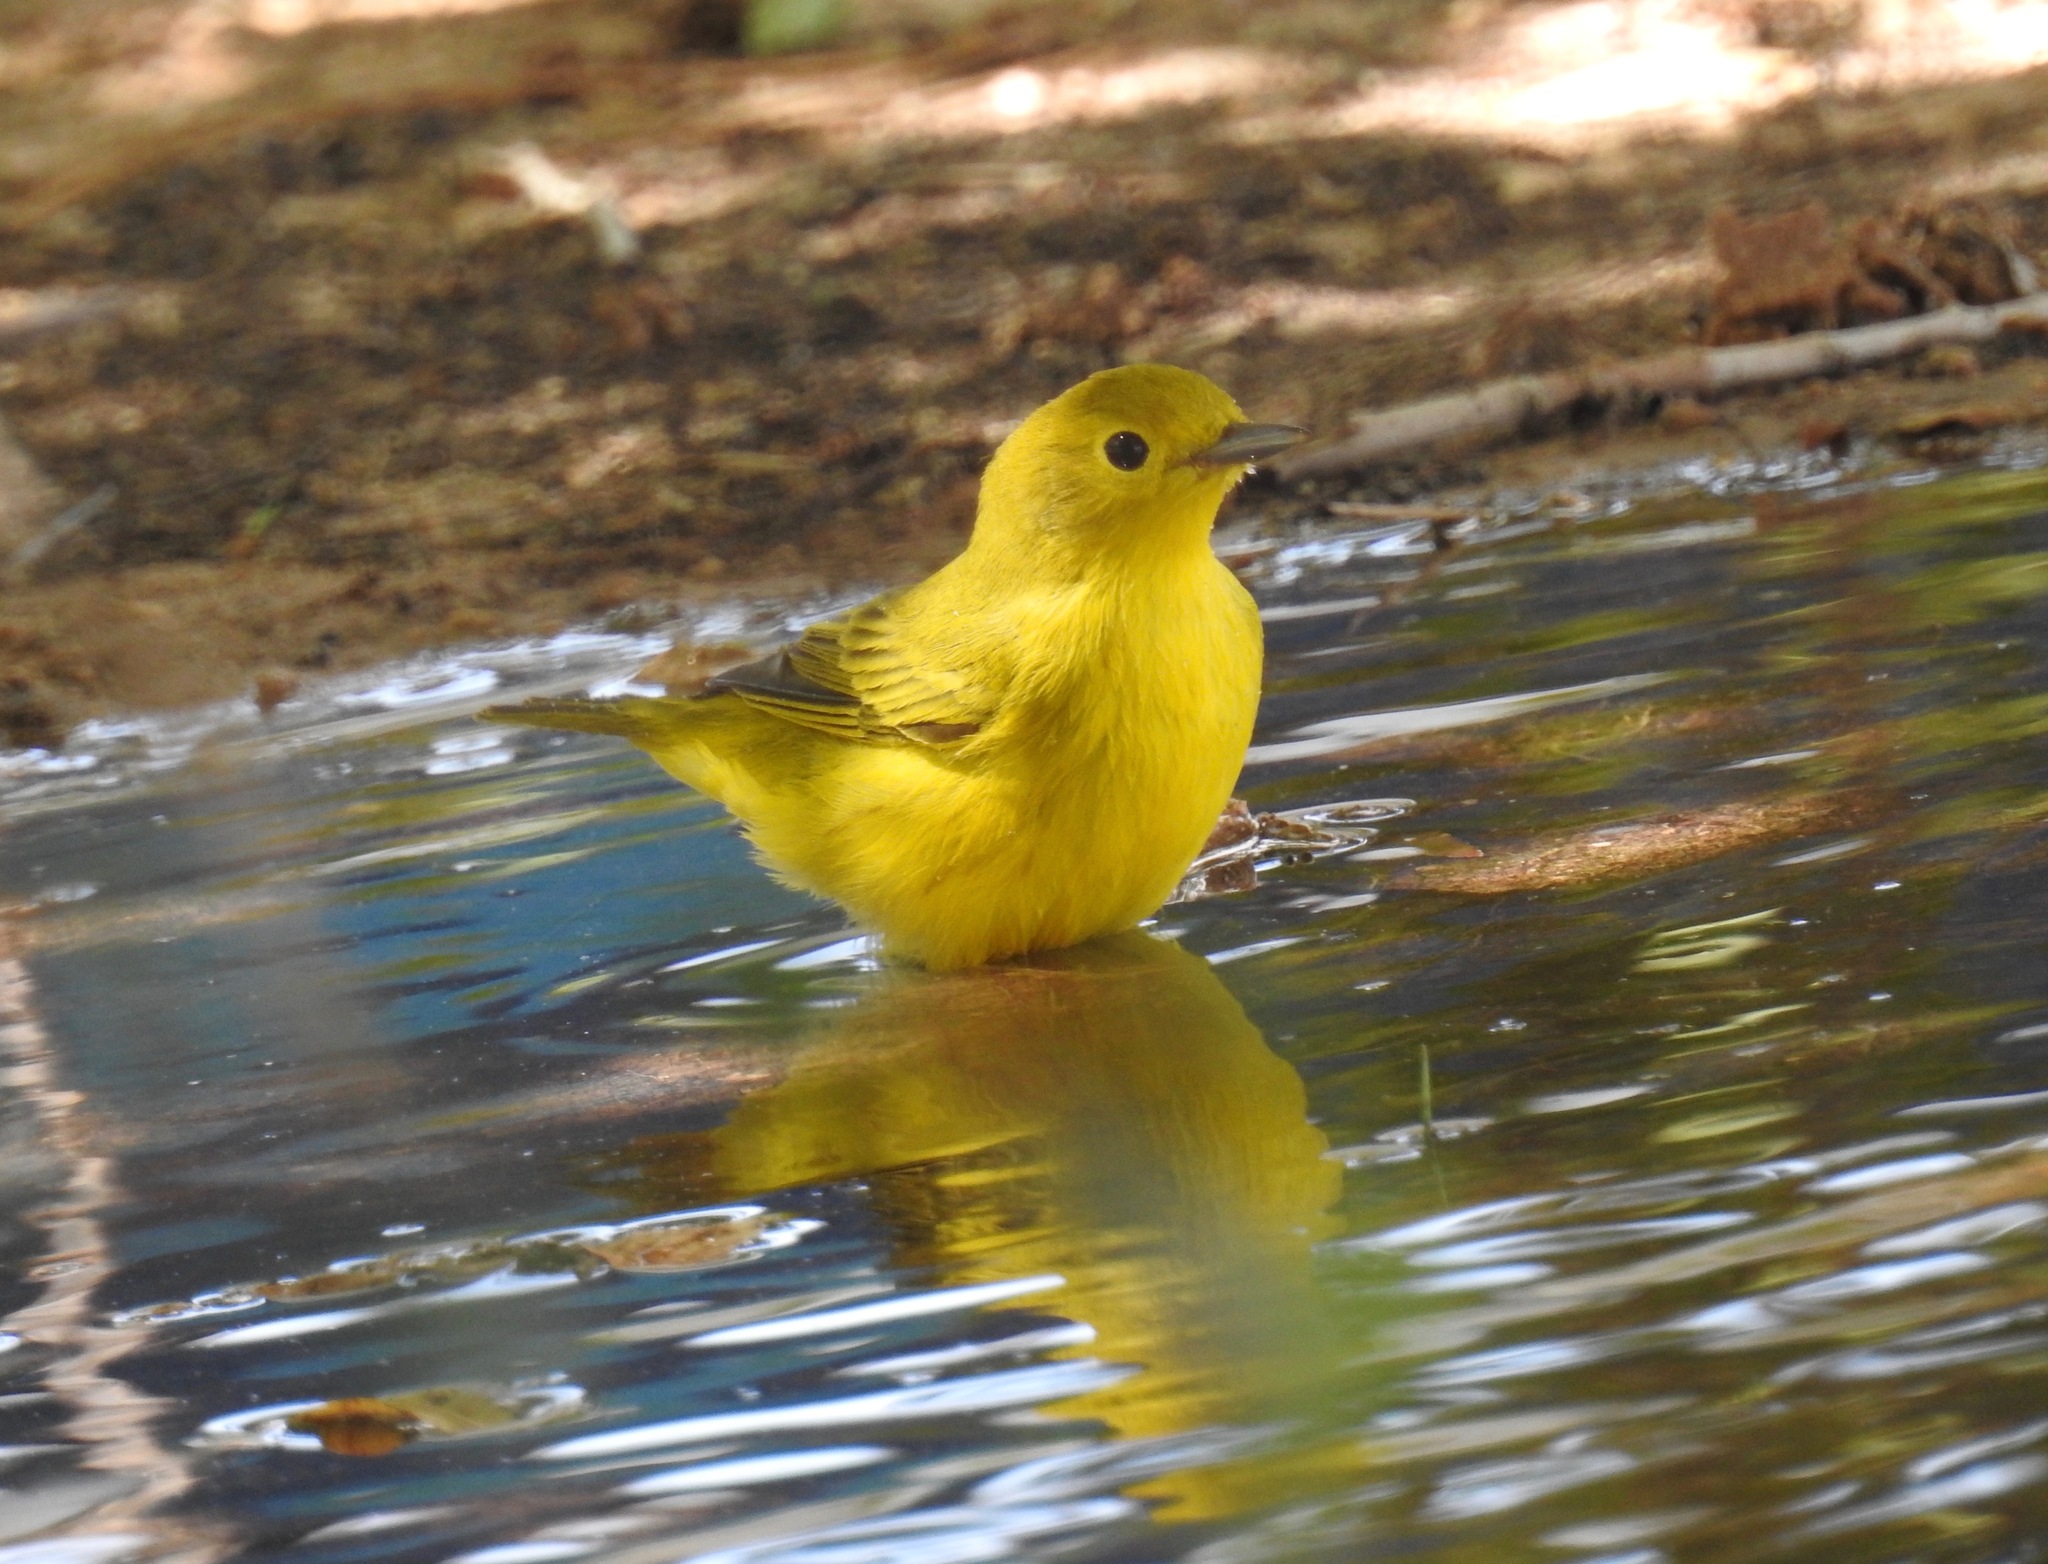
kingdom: Animalia
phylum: Chordata
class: Aves
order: Passeriformes
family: Parulidae
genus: Setophaga
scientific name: Setophaga petechia
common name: Yellow warbler
